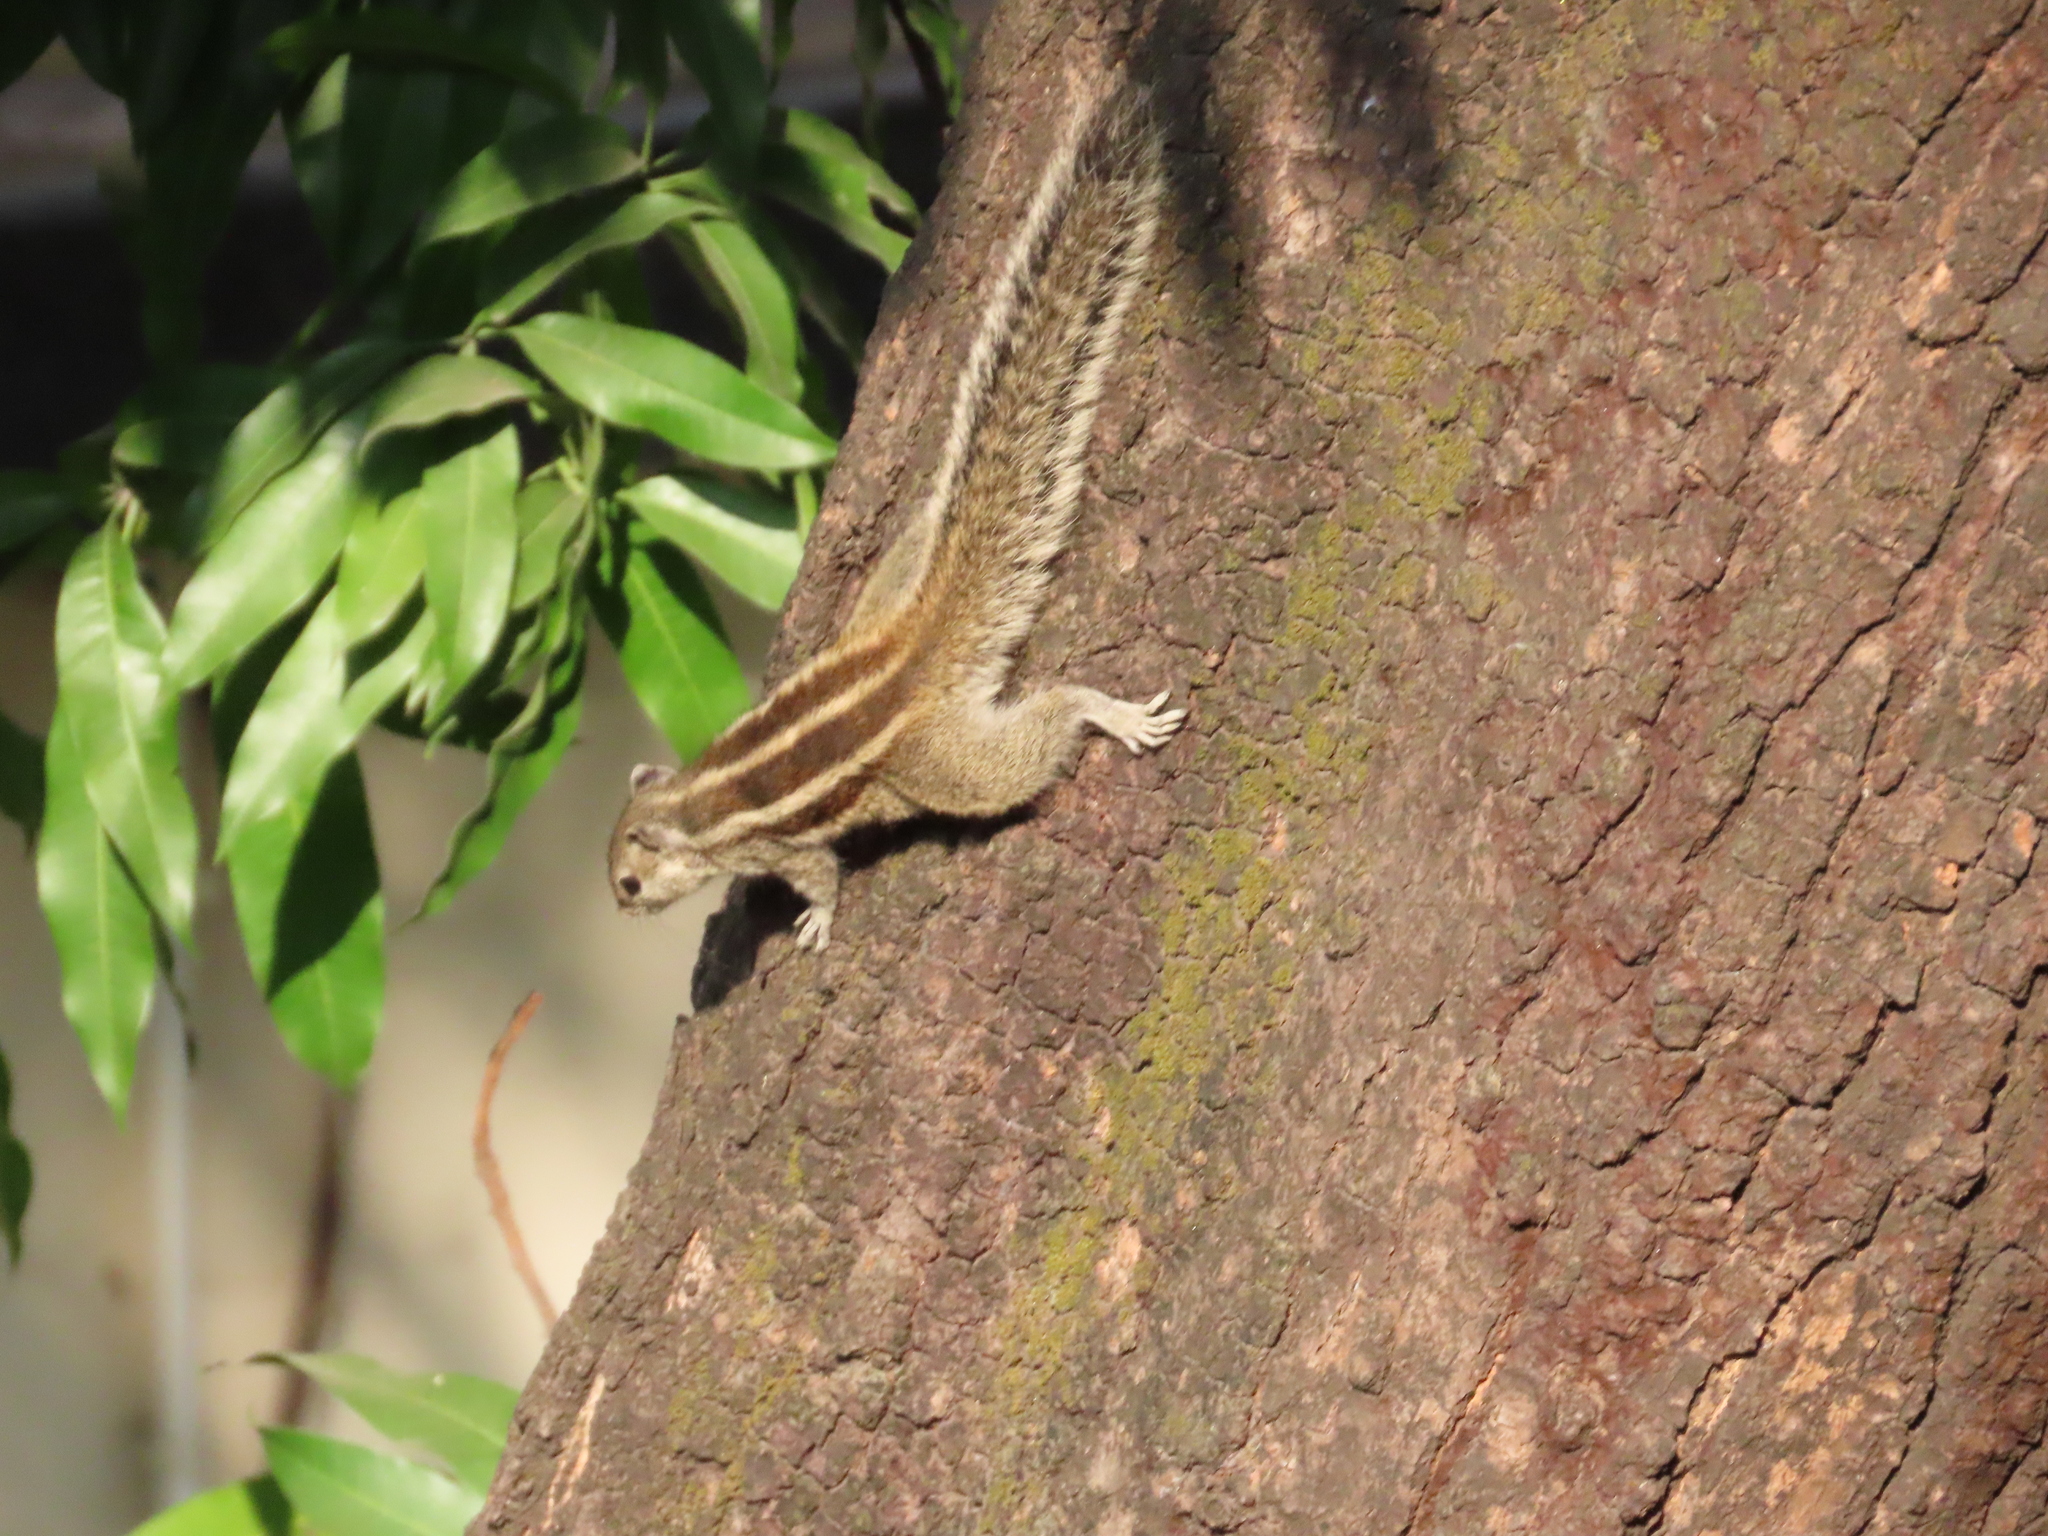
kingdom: Animalia
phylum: Chordata
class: Mammalia
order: Rodentia
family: Sciuridae
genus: Funambulus
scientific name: Funambulus pennantii
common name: Northern palm squirrel
